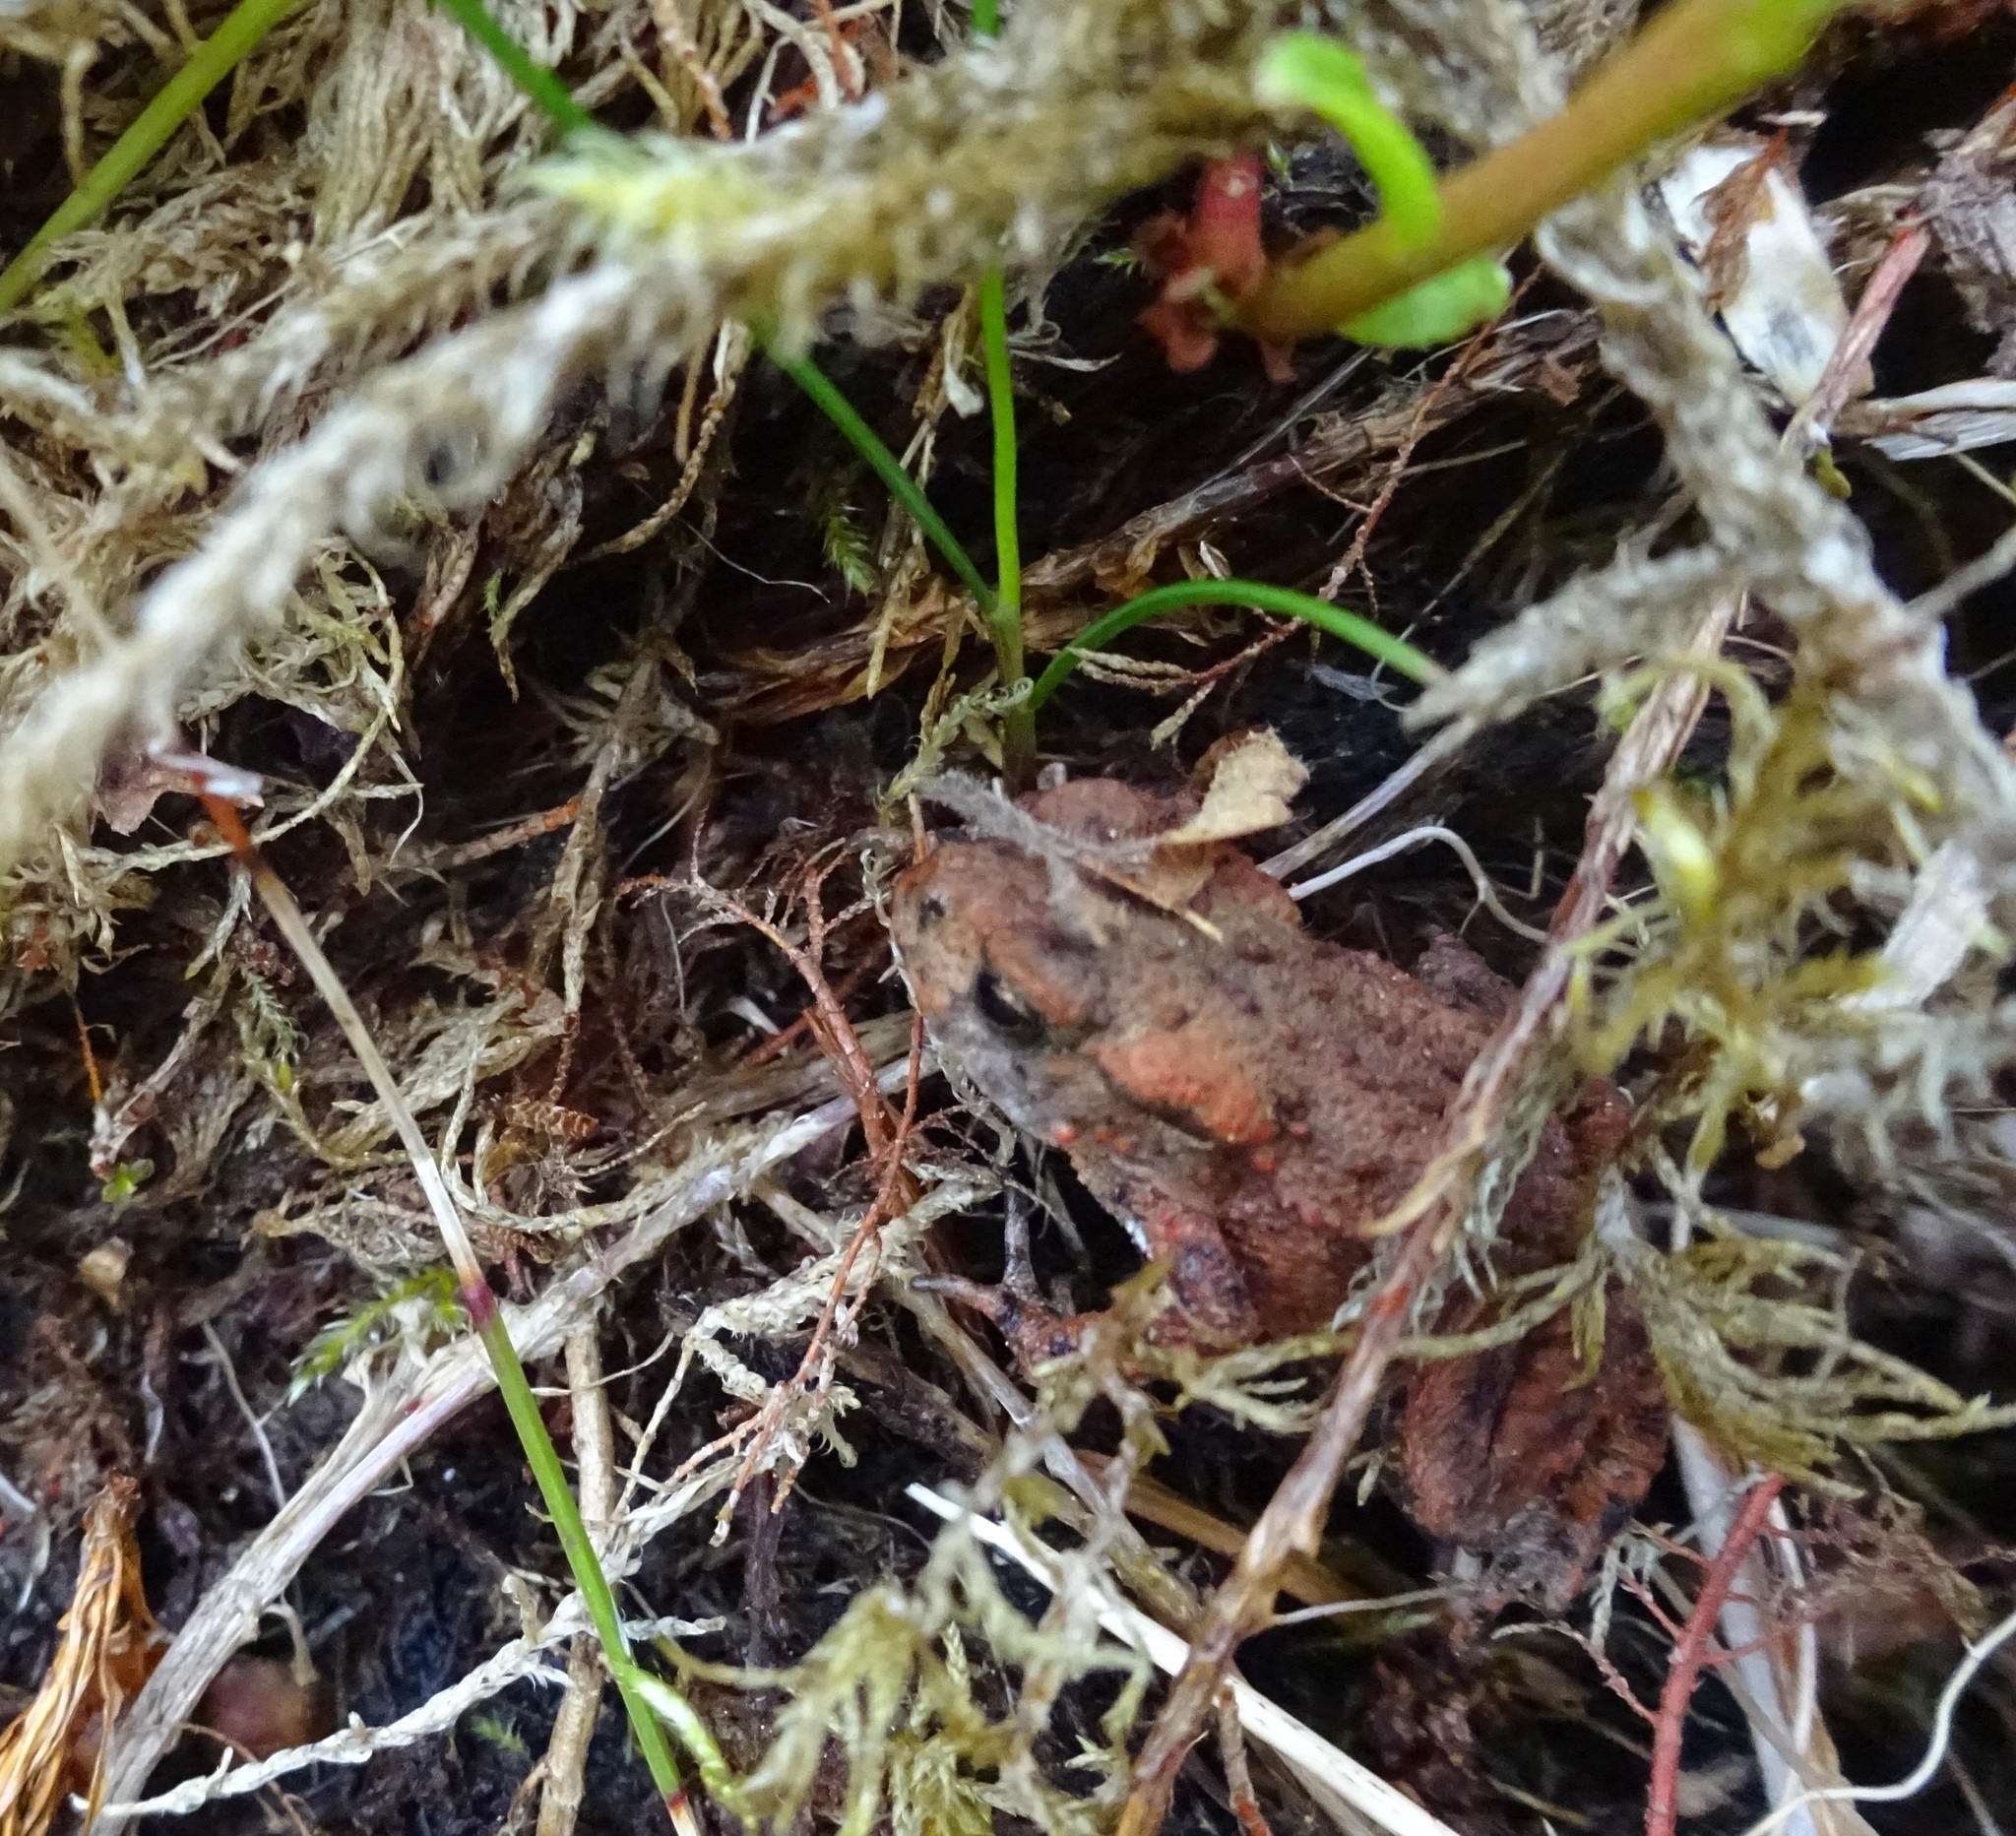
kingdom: Animalia
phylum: Chordata
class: Amphibia
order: Anura
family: Bufonidae
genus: Bufo
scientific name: Bufo bufo
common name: Common toad
